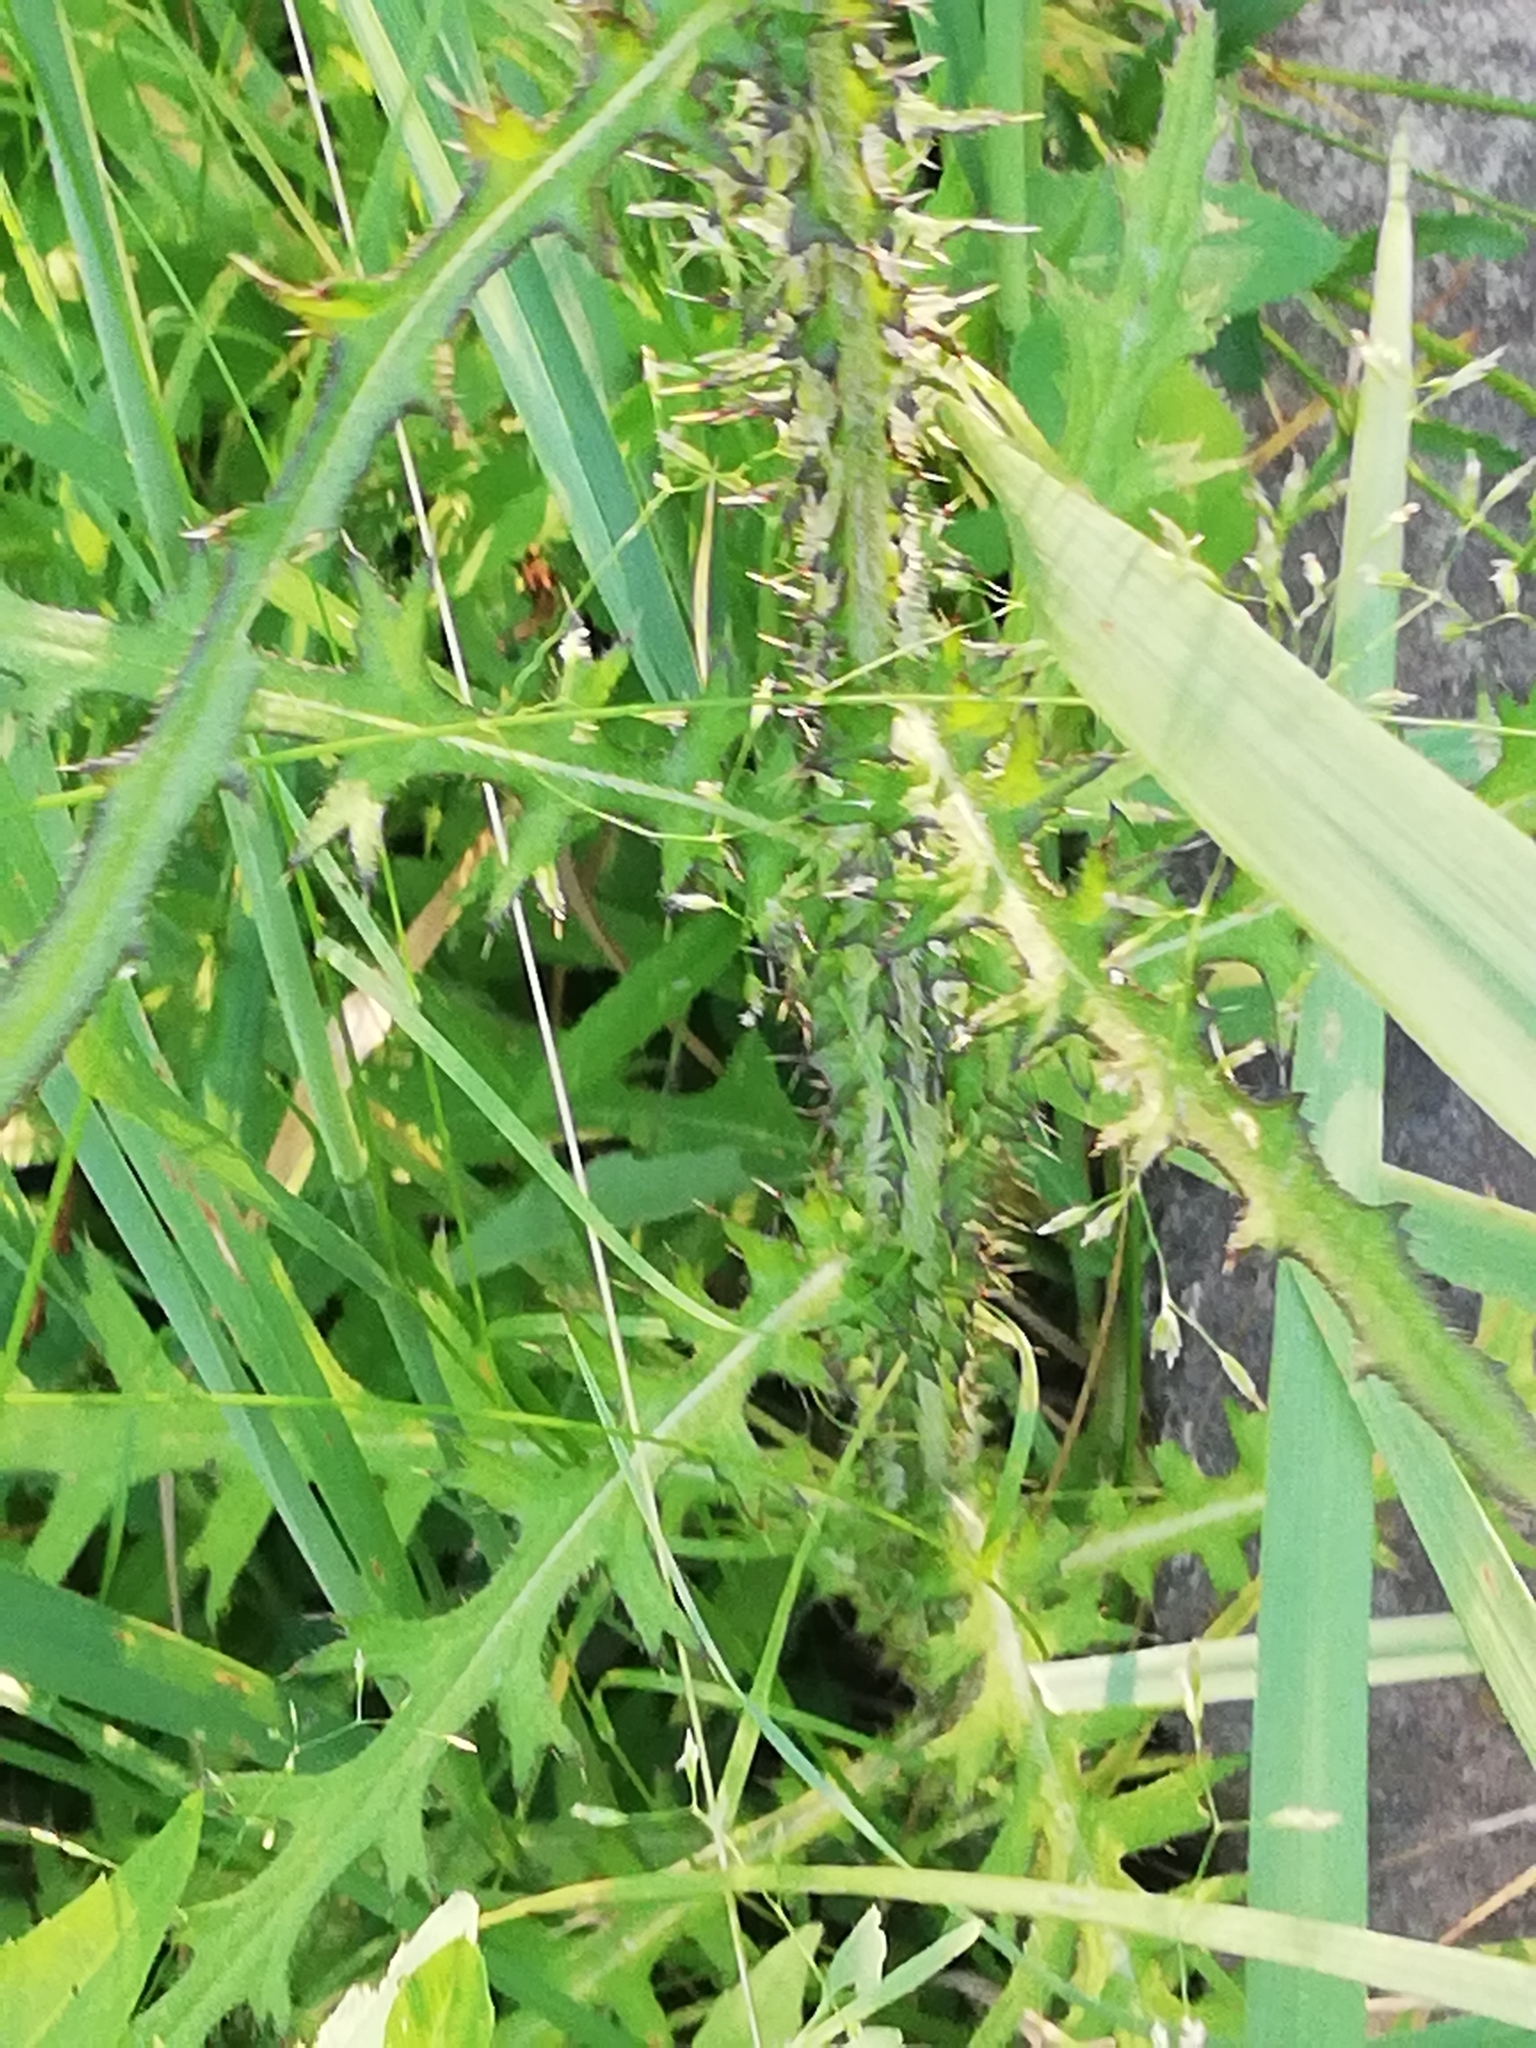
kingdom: Plantae
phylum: Tracheophyta
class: Magnoliopsida
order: Asterales
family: Asteraceae
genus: Cirsium
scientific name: Cirsium palustre
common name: Marsh thistle
